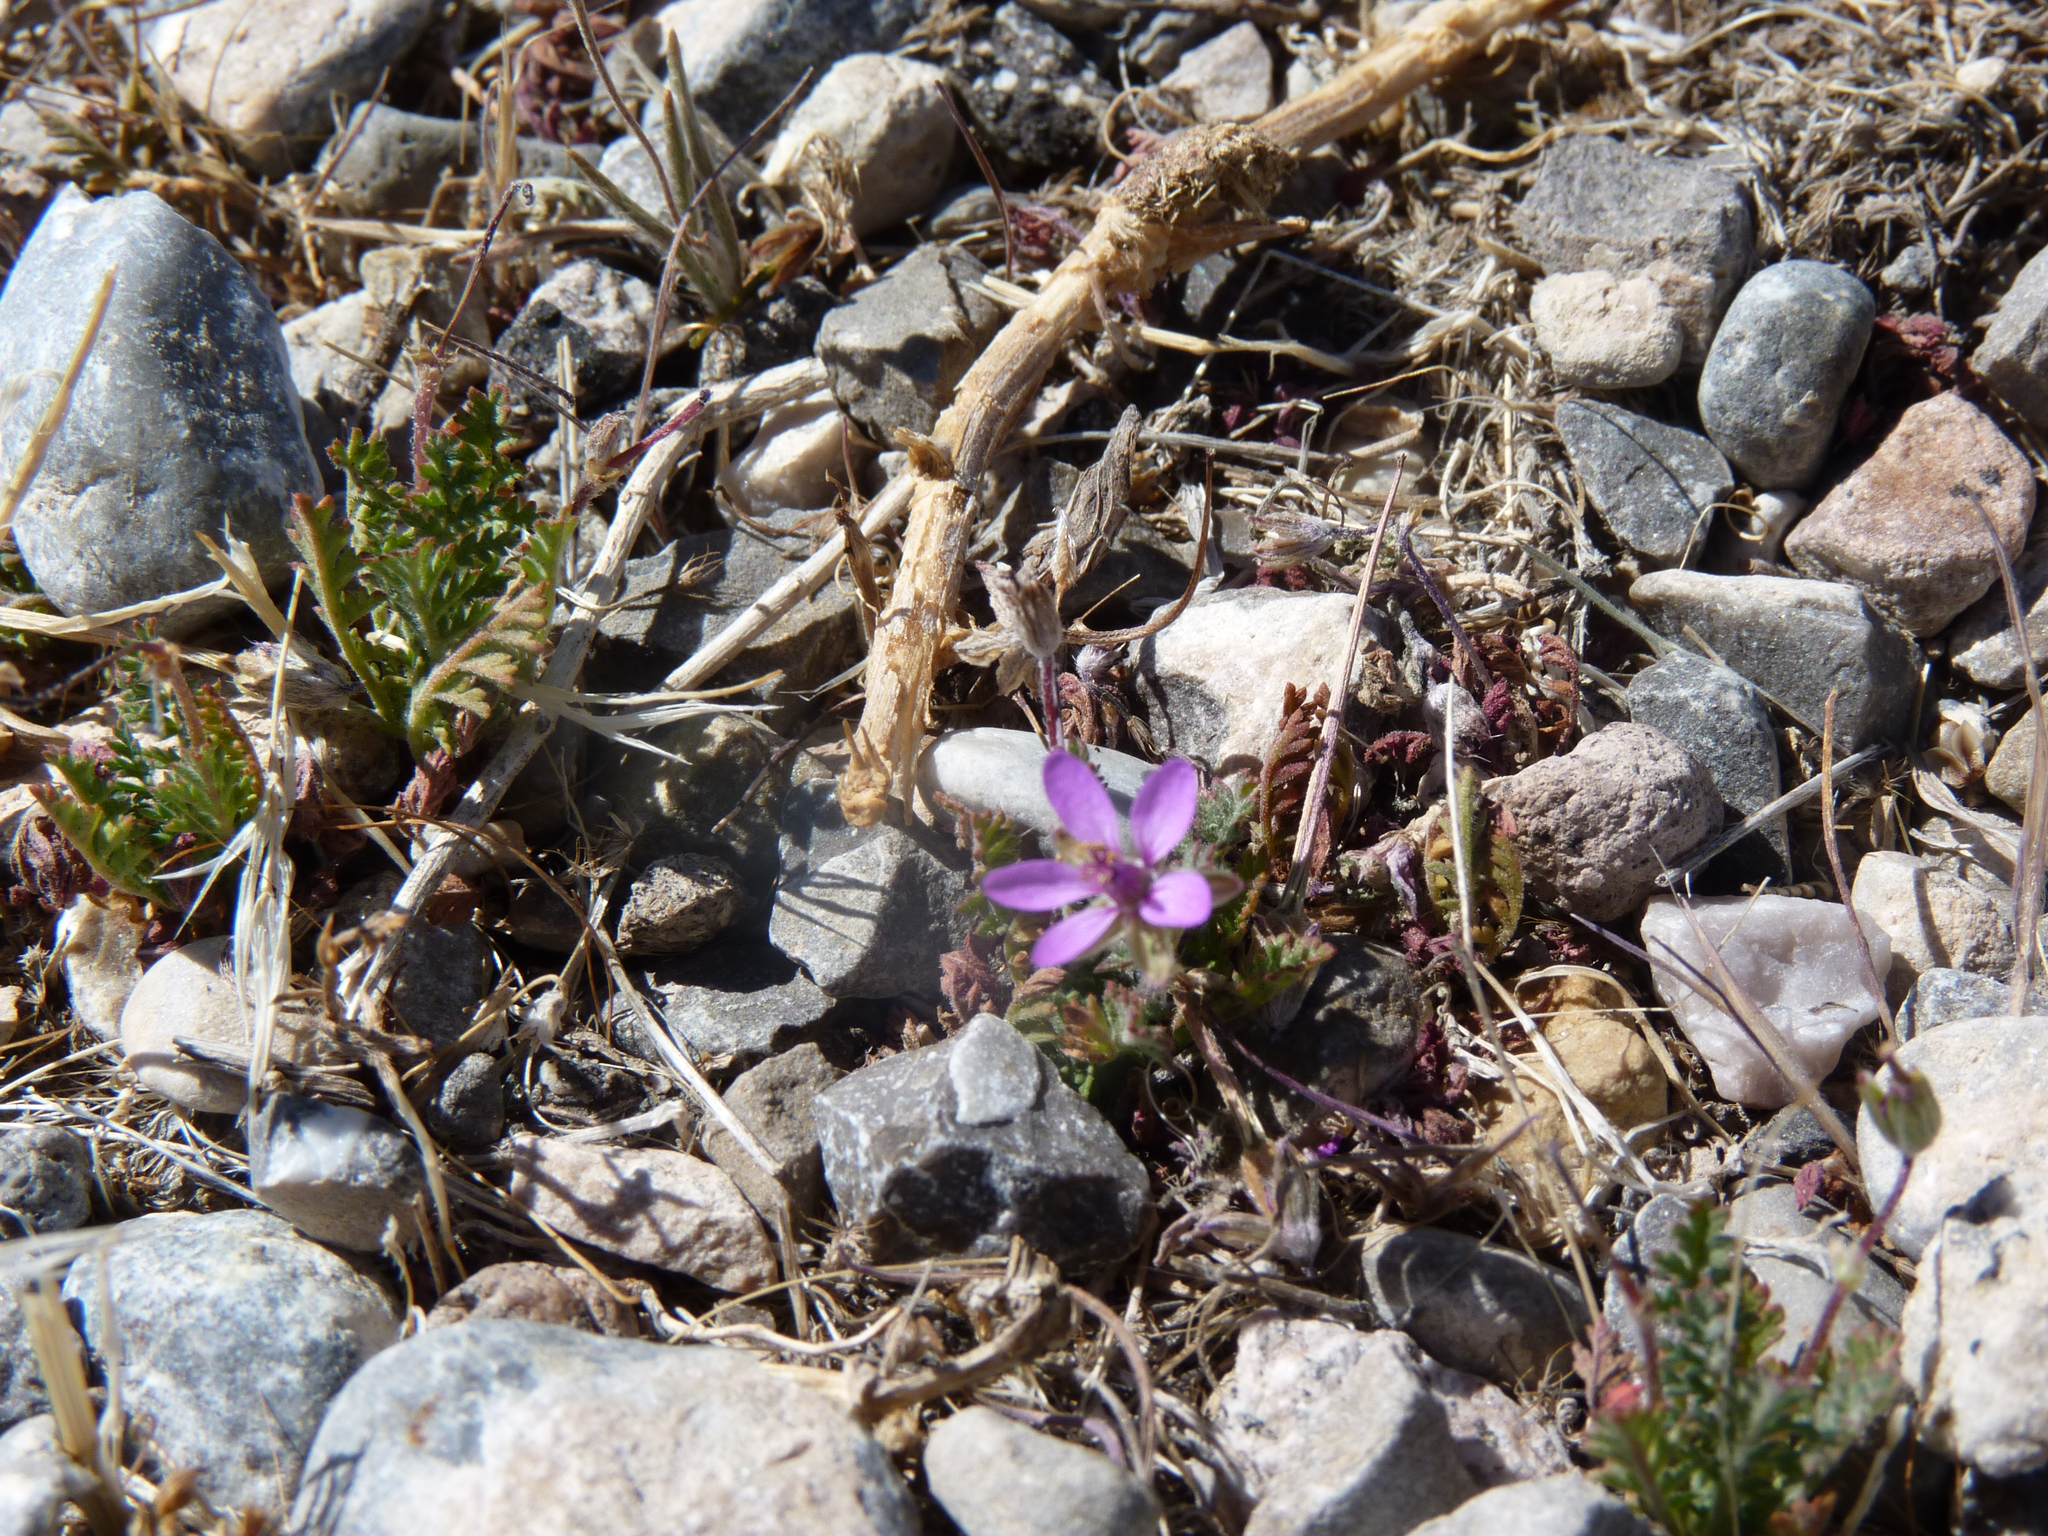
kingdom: Plantae
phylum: Tracheophyta
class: Magnoliopsida
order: Geraniales
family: Geraniaceae
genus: Erodium
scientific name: Erodium cicutarium
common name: Common stork's-bill
